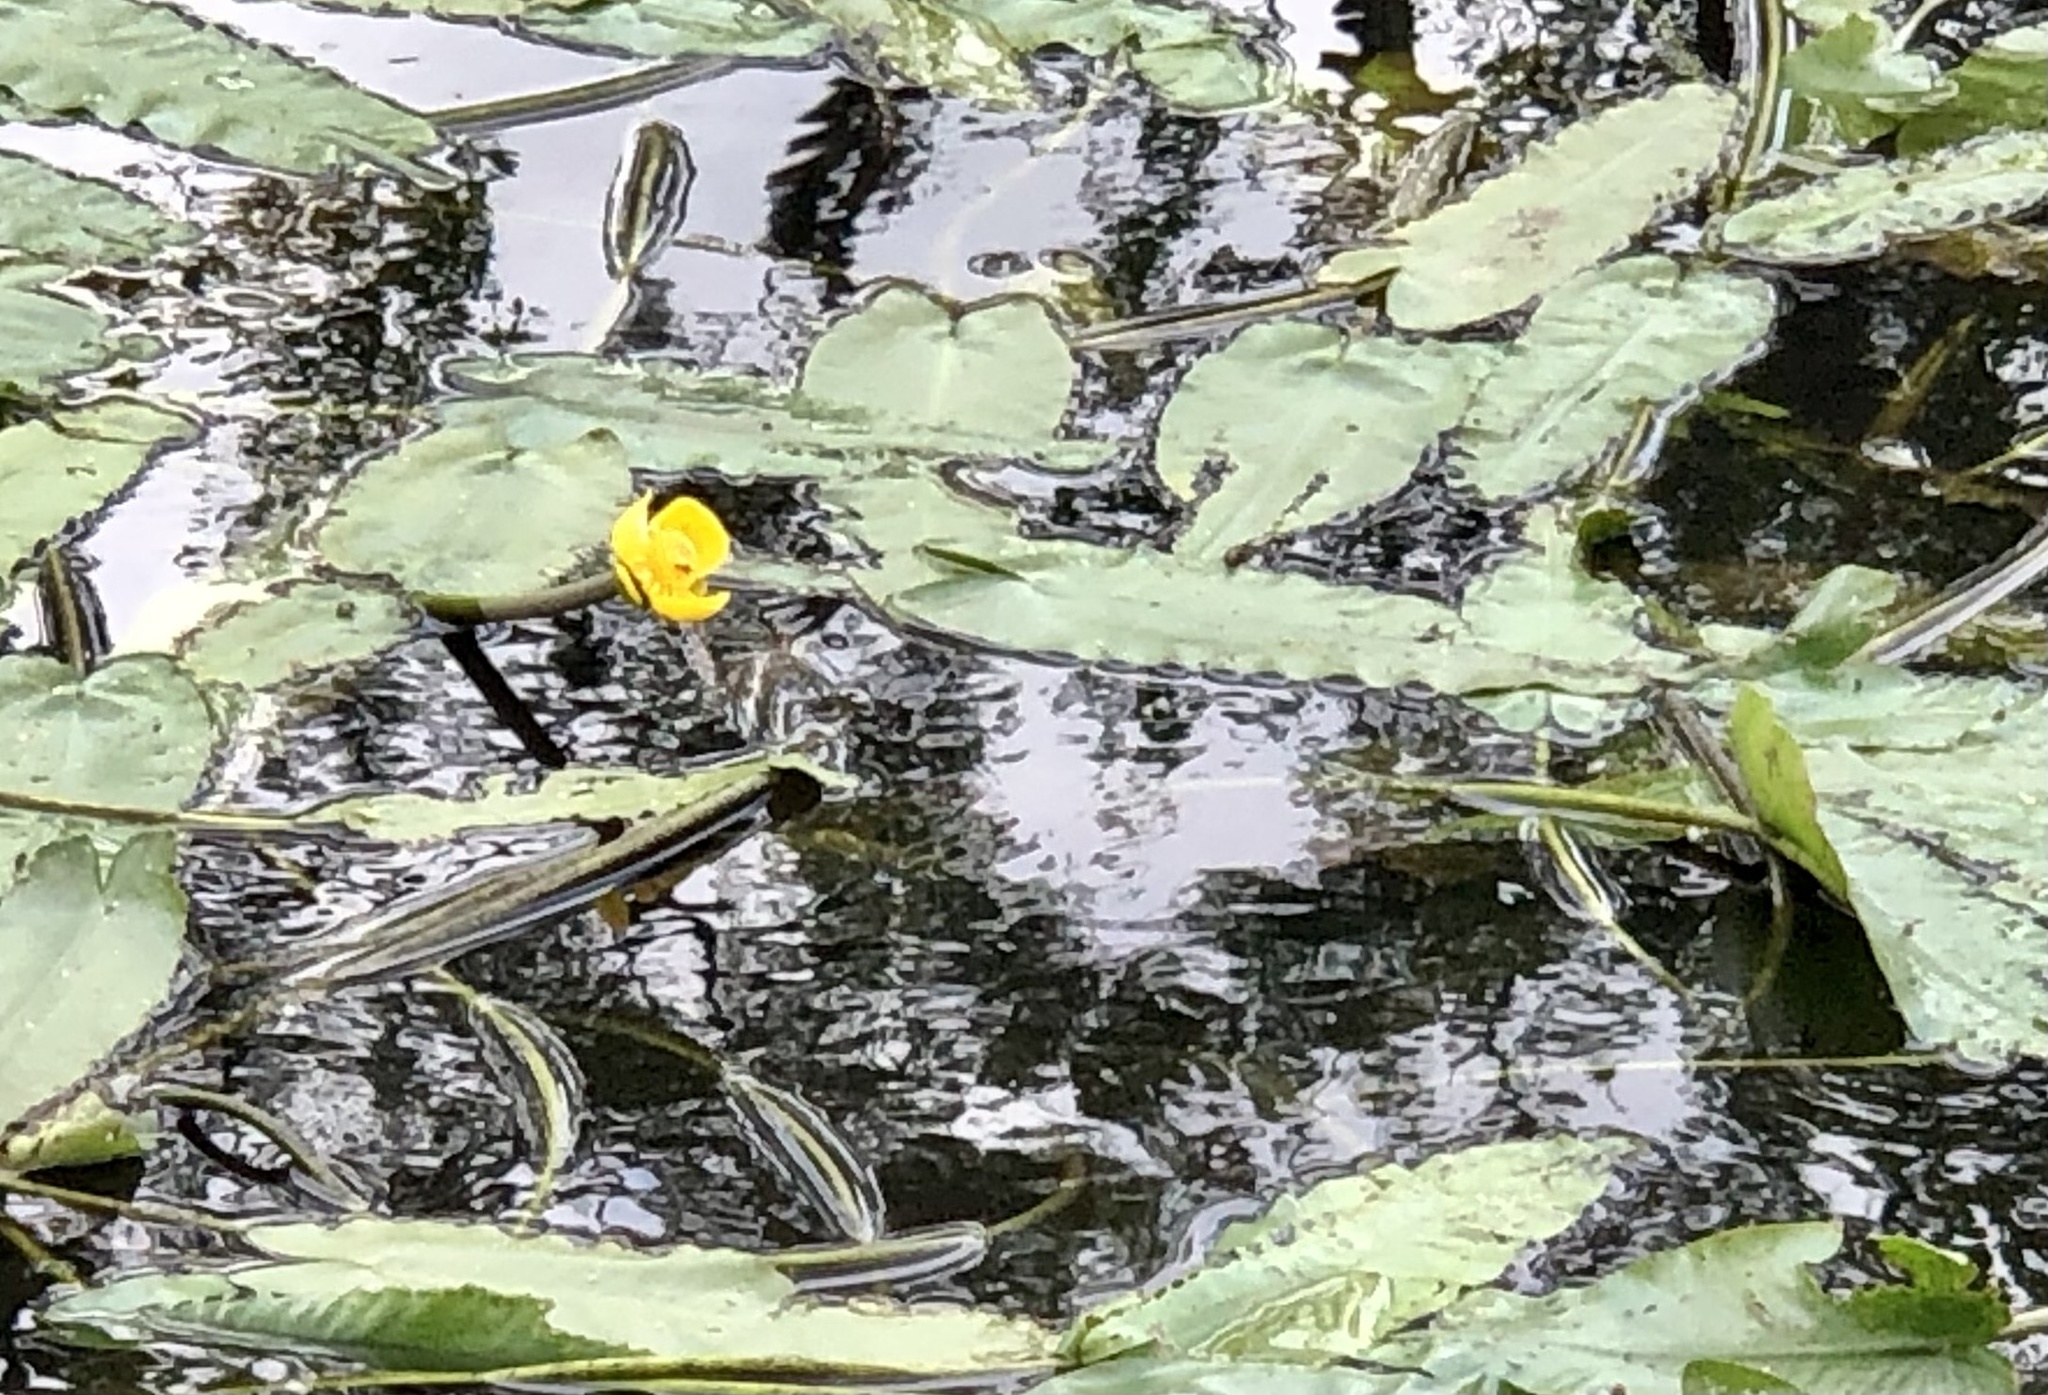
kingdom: Plantae
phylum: Tracheophyta
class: Magnoliopsida
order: Nymphaeales
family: Nymphaeaceae
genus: Nuphar
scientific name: Nuphar sagittifolia
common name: Cape fear spatterdock
